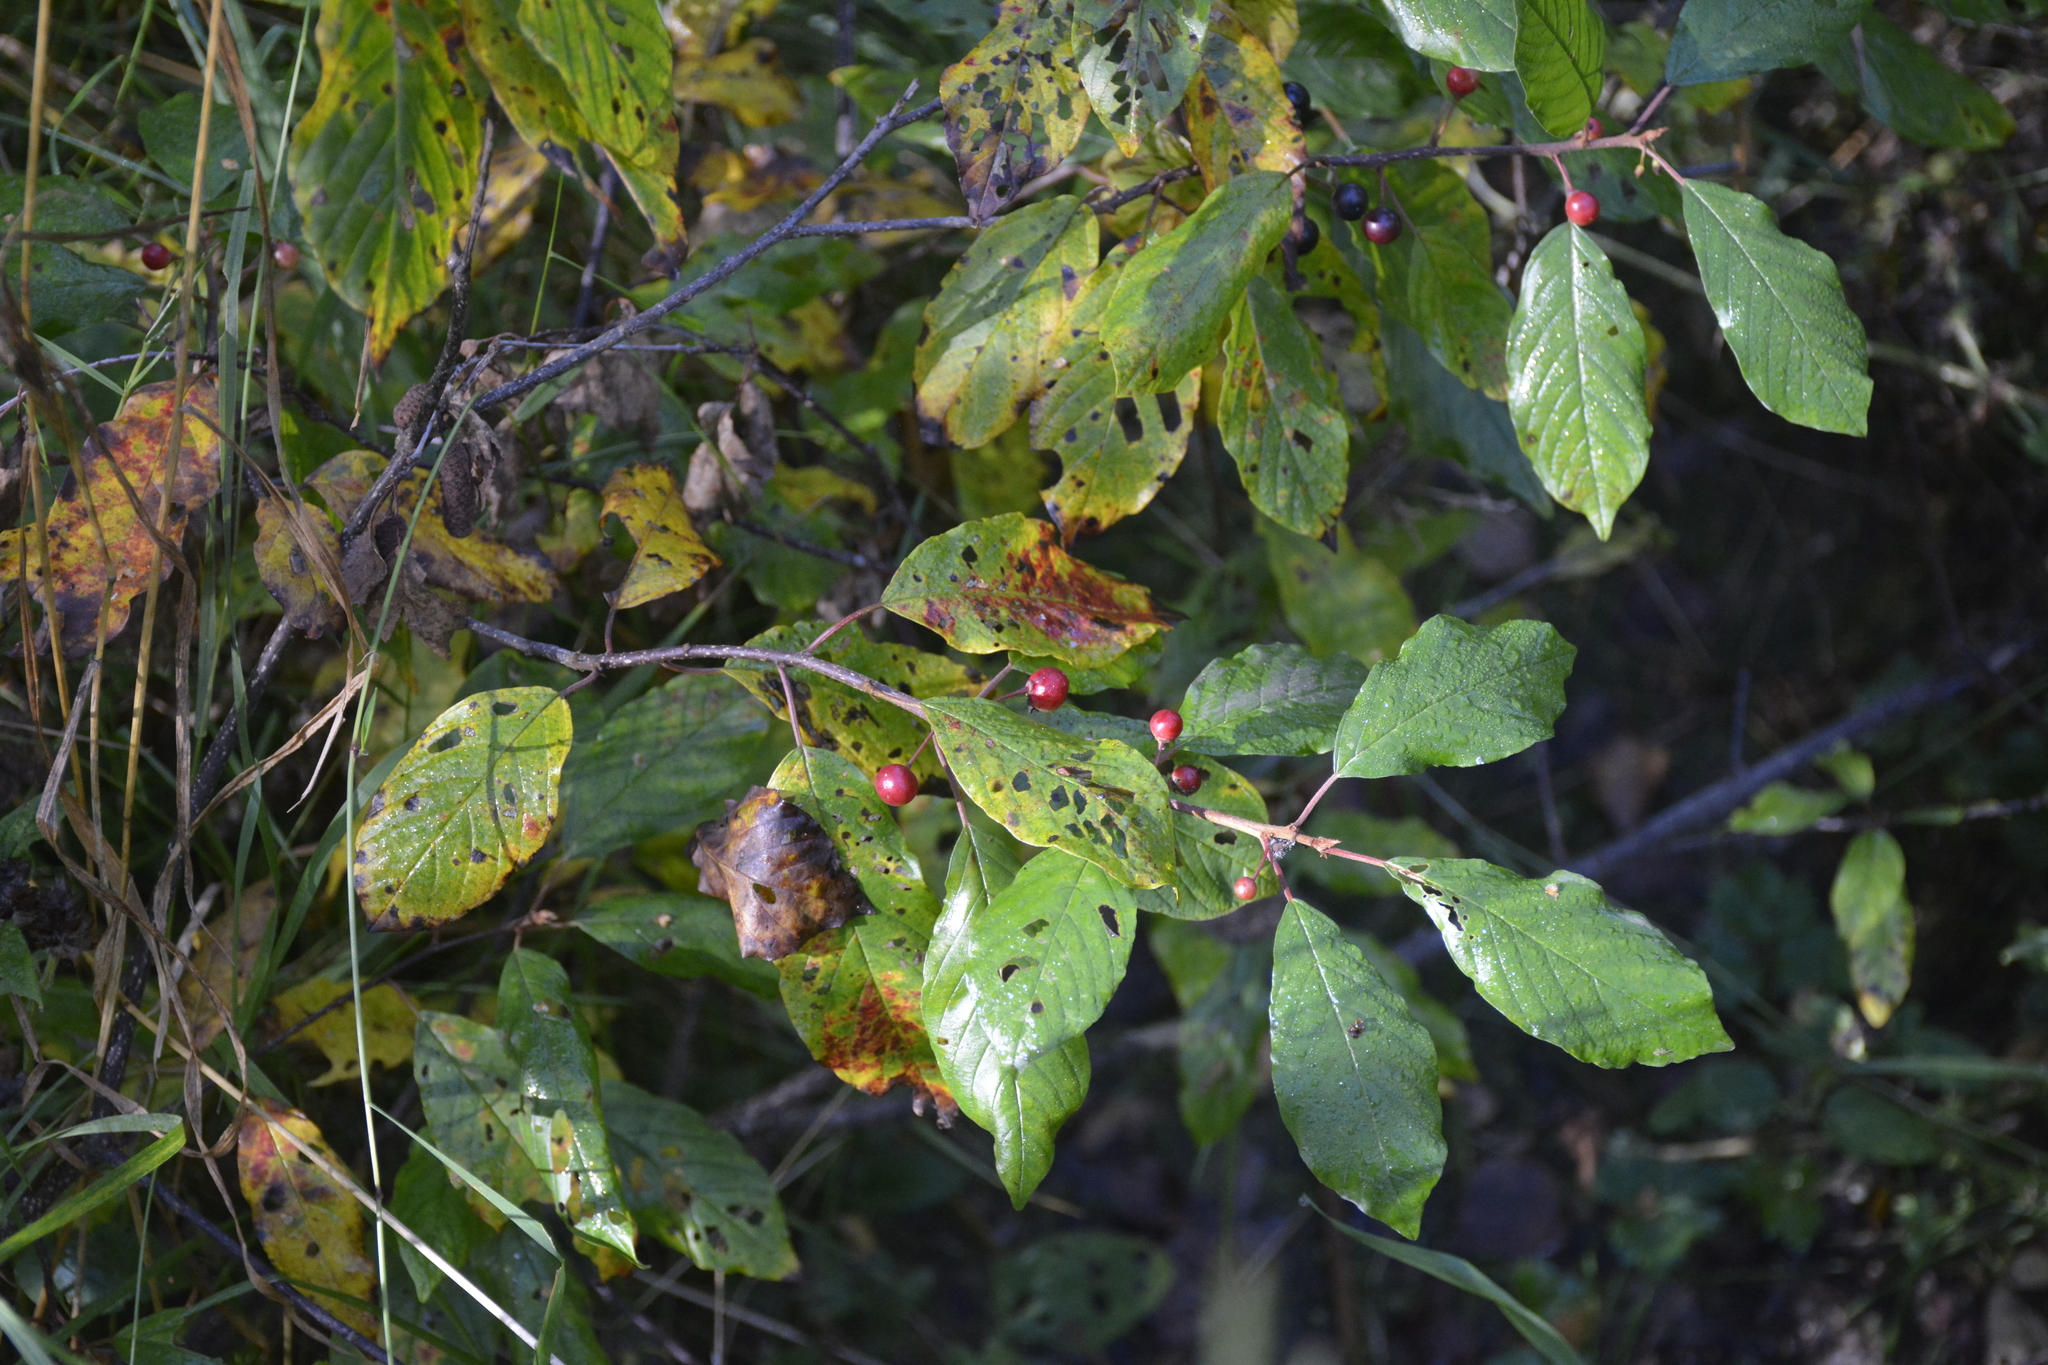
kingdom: Plantae
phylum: Tracheophyta
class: Magnoliopsida
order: Rosales
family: Rhamnaceae
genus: Frangula
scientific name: Frangula alnus
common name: Alder buckthorn
